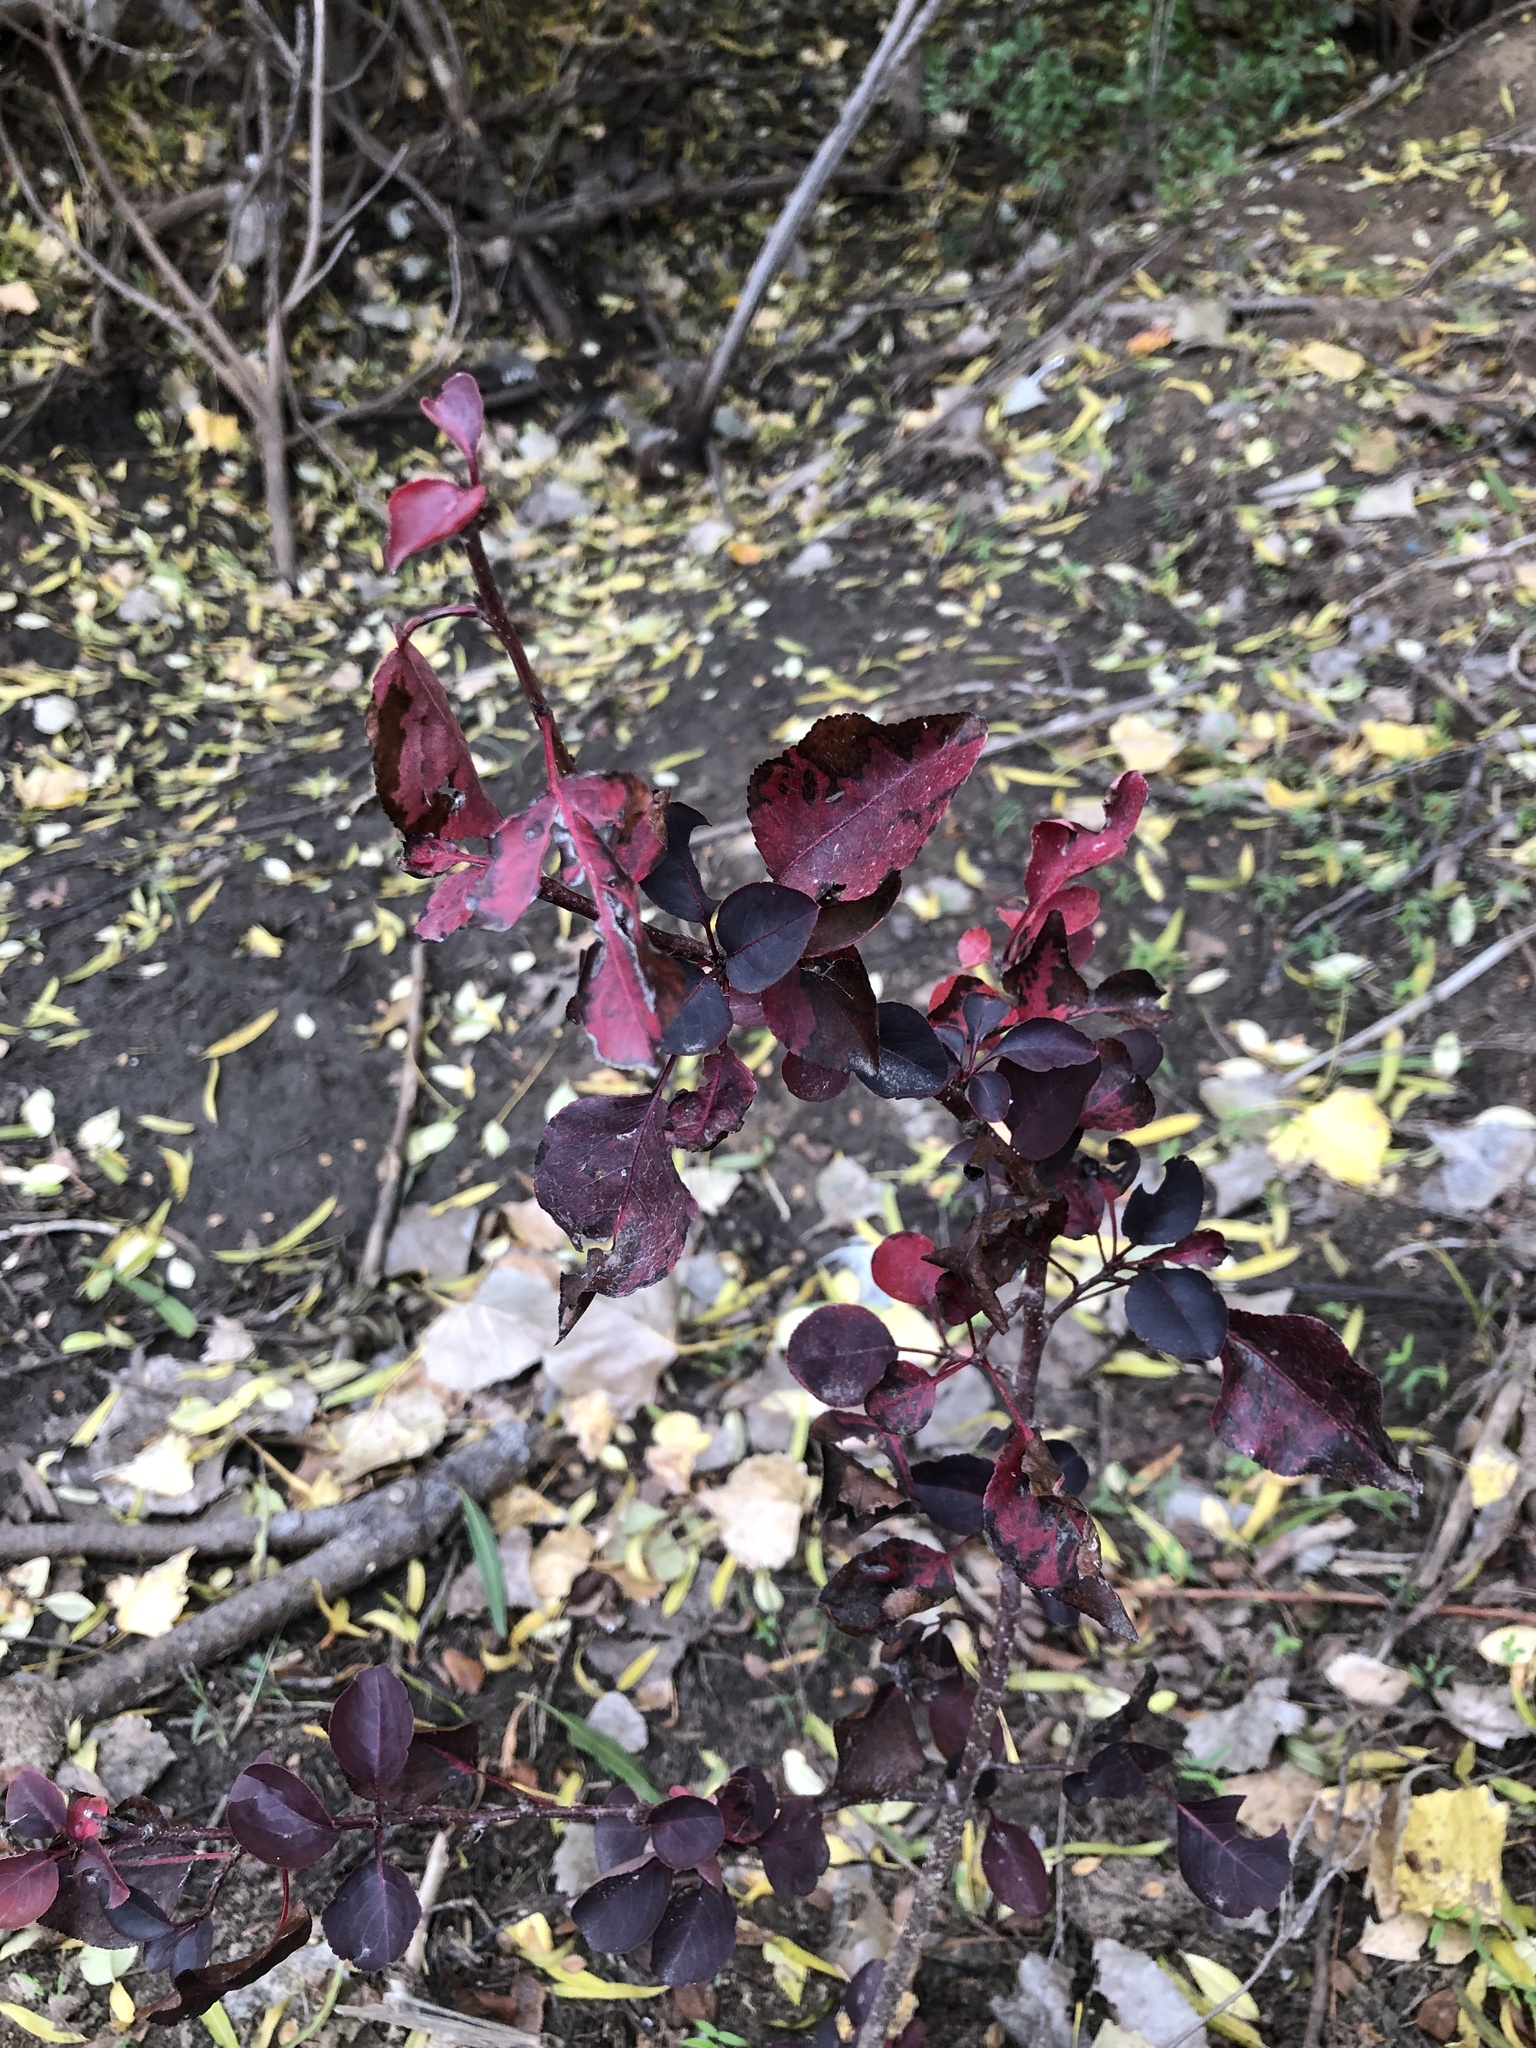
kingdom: Plantae
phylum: Tracheophyta
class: Magnoliopsida
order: Rosales
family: Rosaceae
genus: Pyrus
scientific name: Pyrus calleryana
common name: Callery pear
